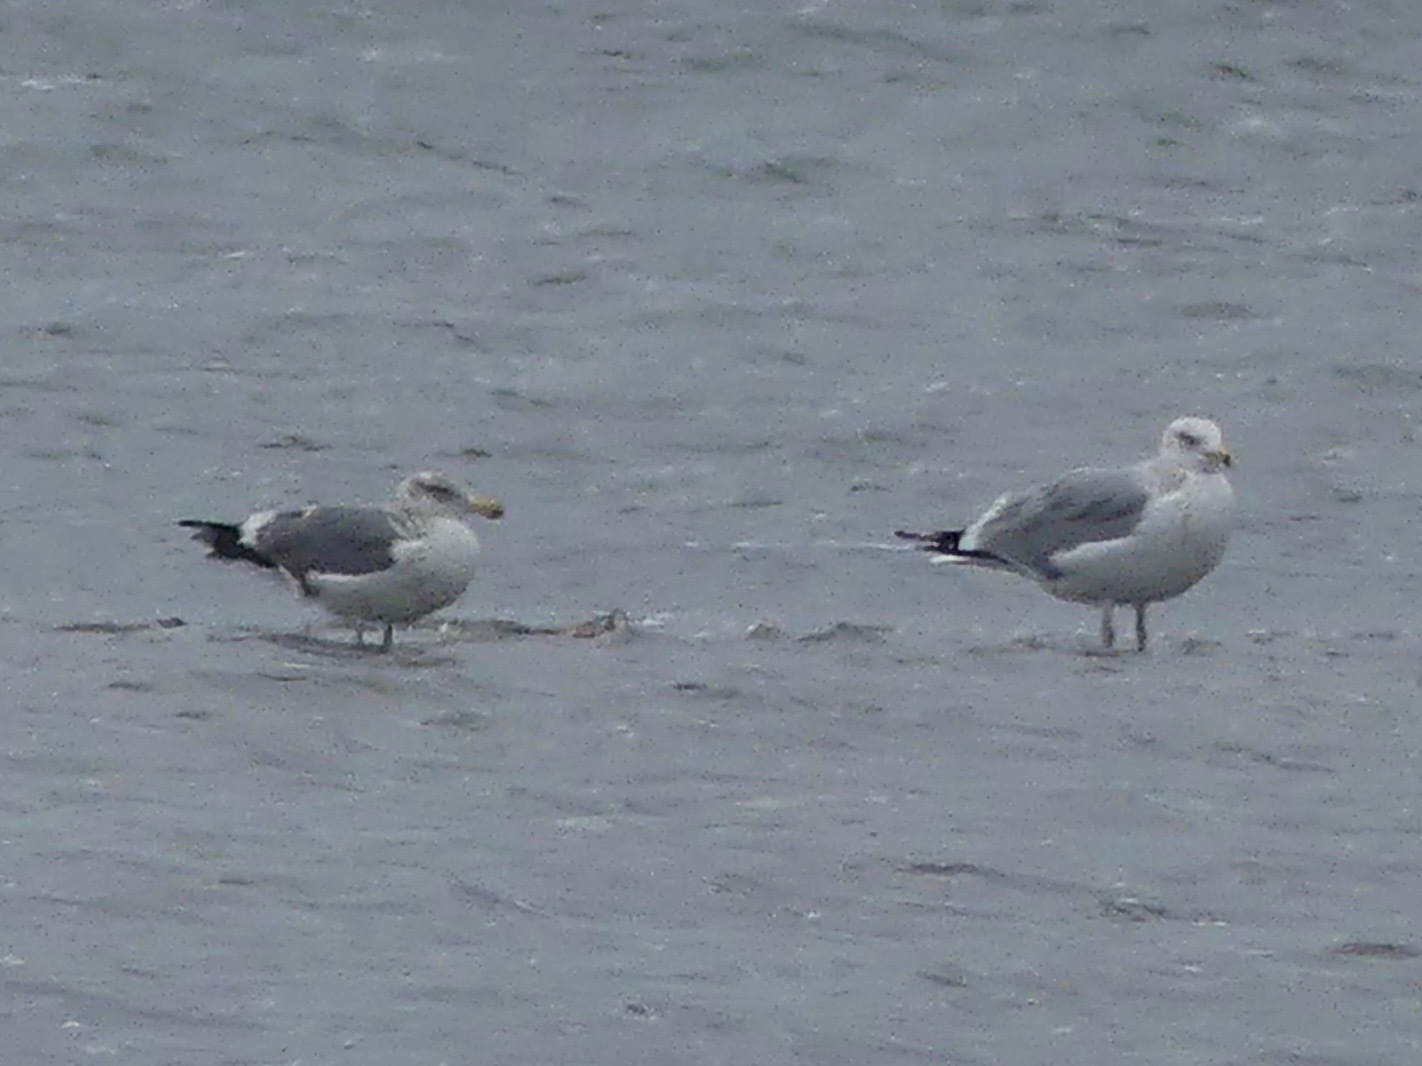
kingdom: Animalia
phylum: Chordata
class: Aves
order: Charadriiformes
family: Laridae
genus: Larus
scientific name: Larus argentatus
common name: Herring gull
